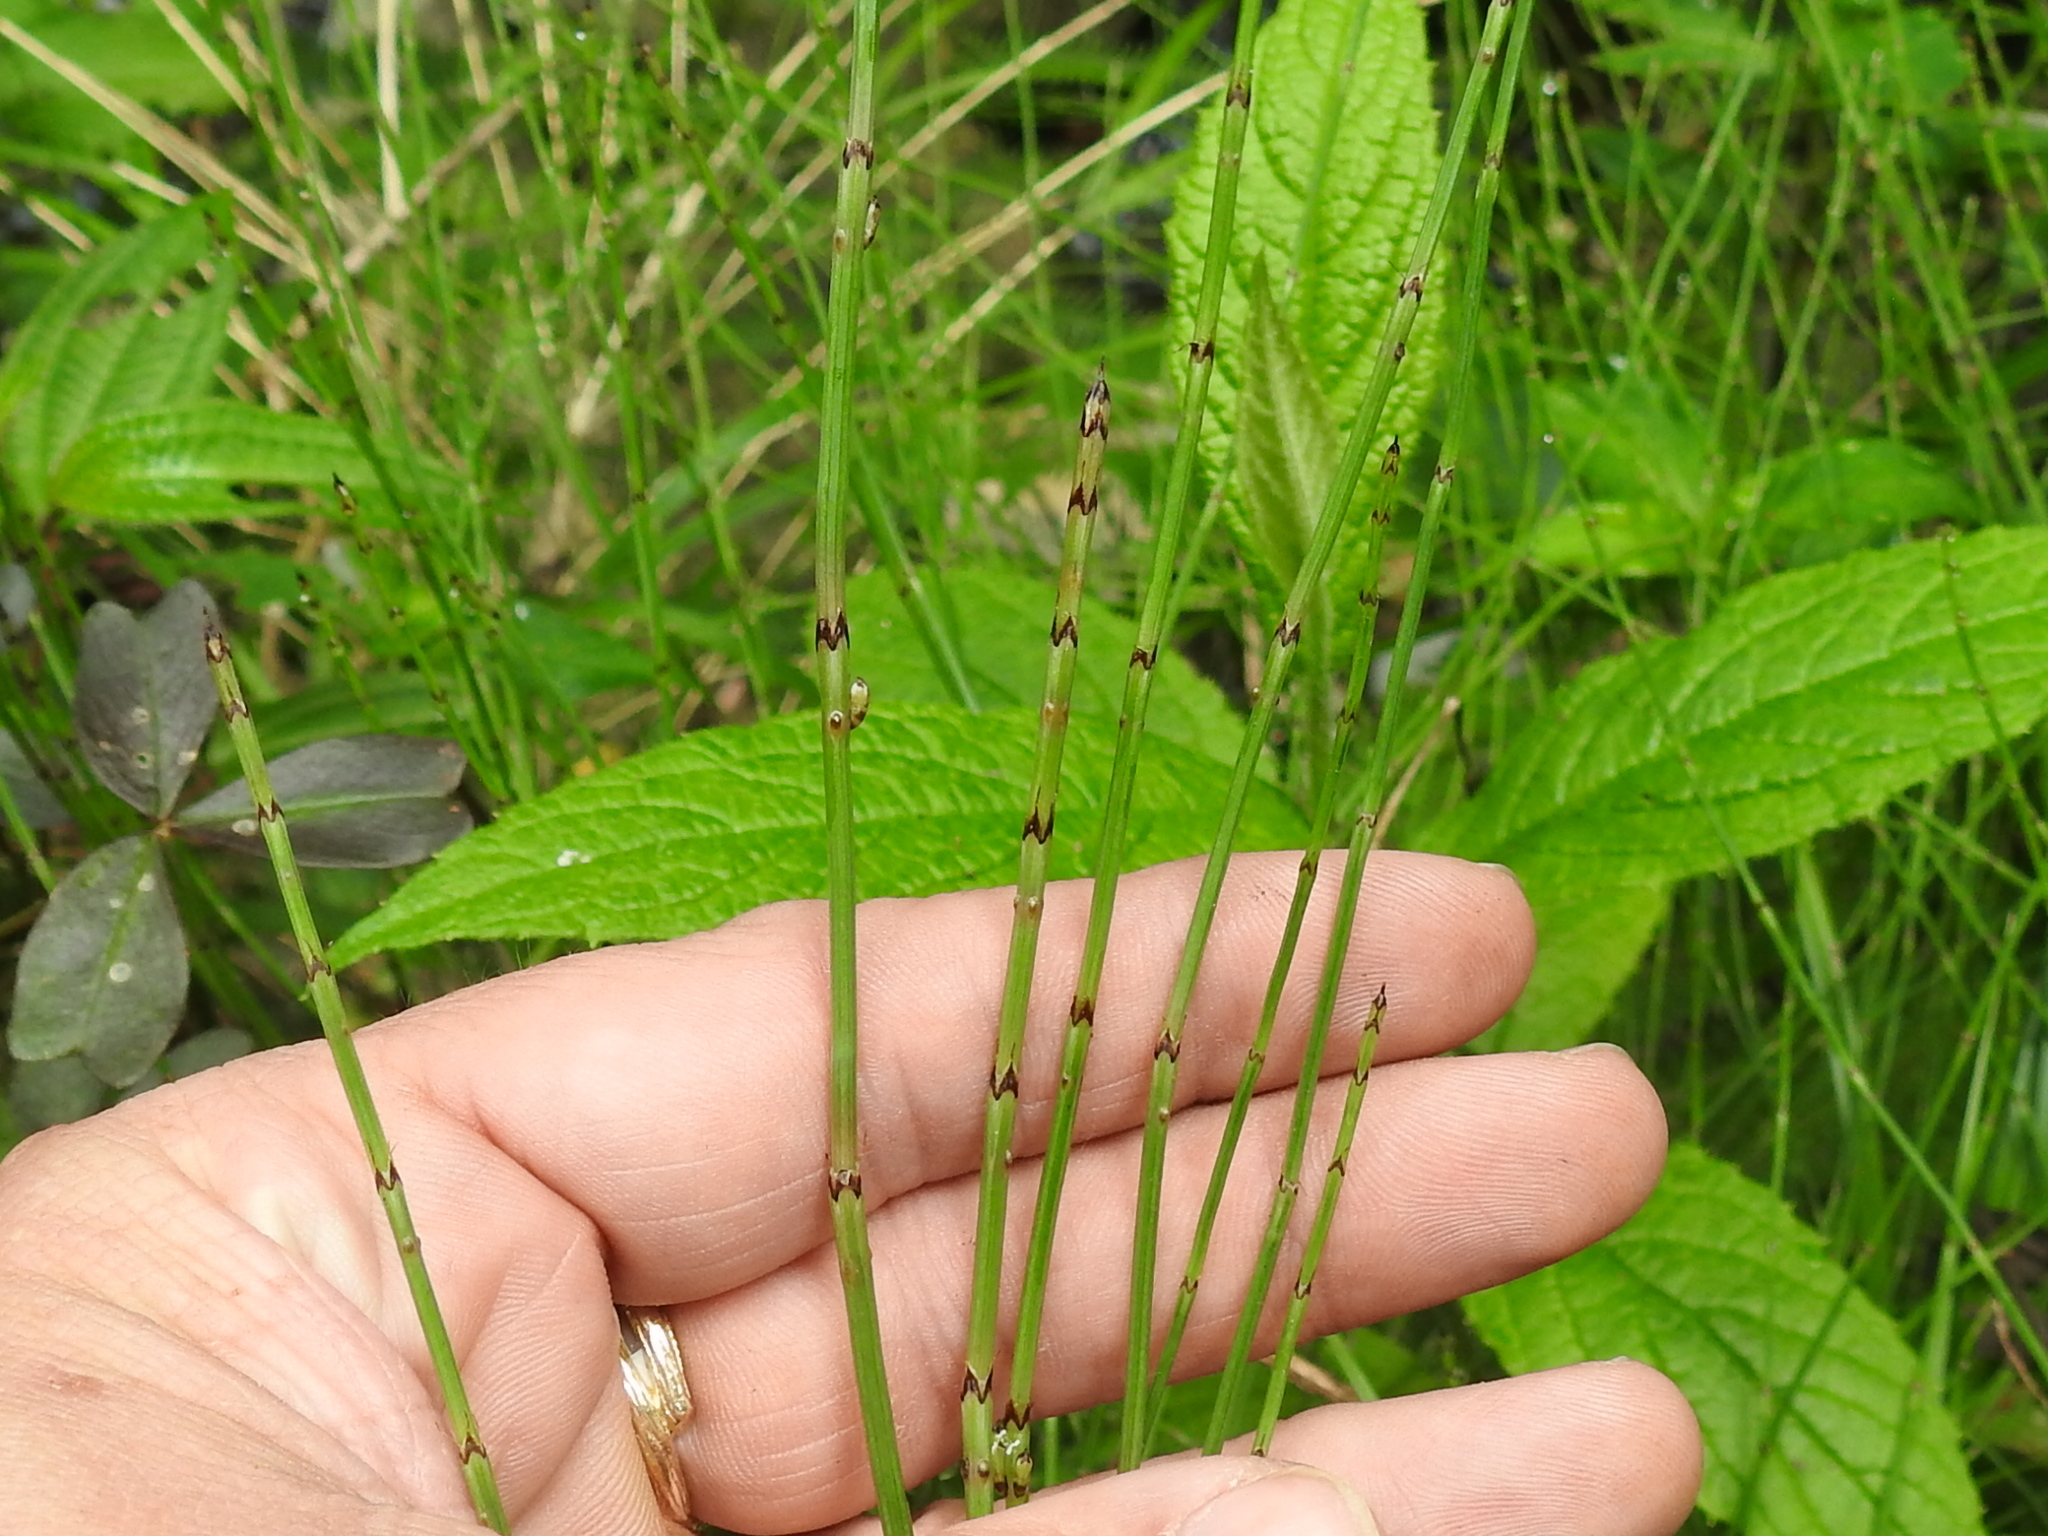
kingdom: Plantae
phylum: Tracheophyta
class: Polypodiopsida
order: Equisetales
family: Equisetaceae
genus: Equisetum
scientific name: Equisetum bogotense
